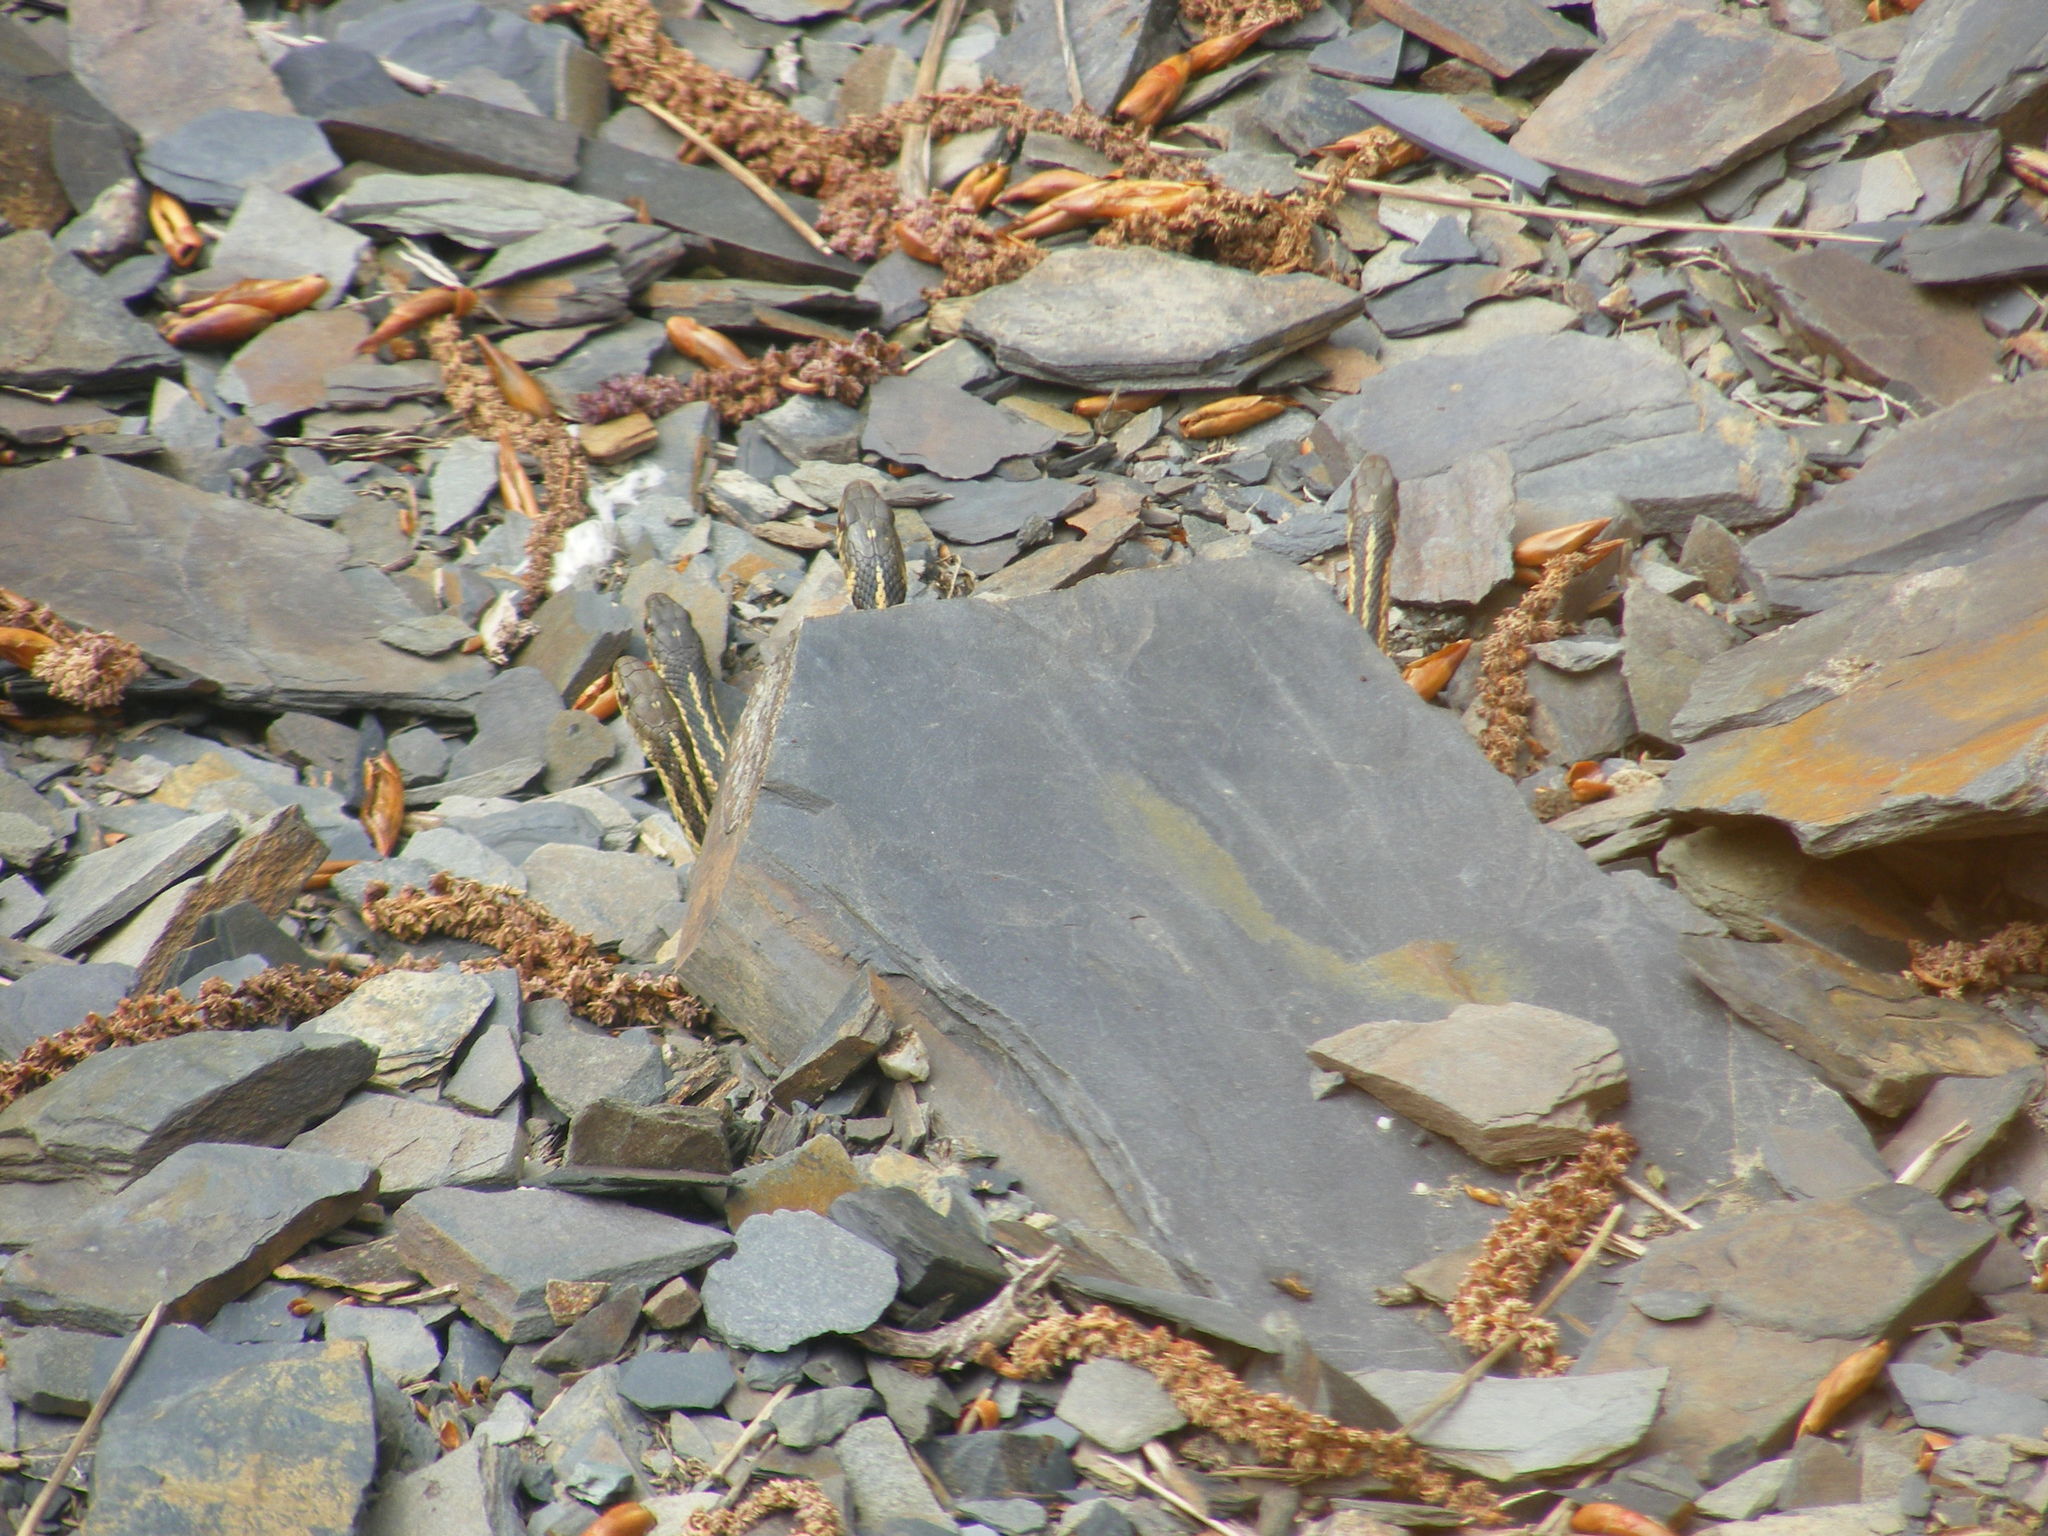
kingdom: Animalia
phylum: Chordata
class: Squamata
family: Colubridae
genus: Thamnophis
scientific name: Thamnophis sirtalis
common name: Common garter snake
